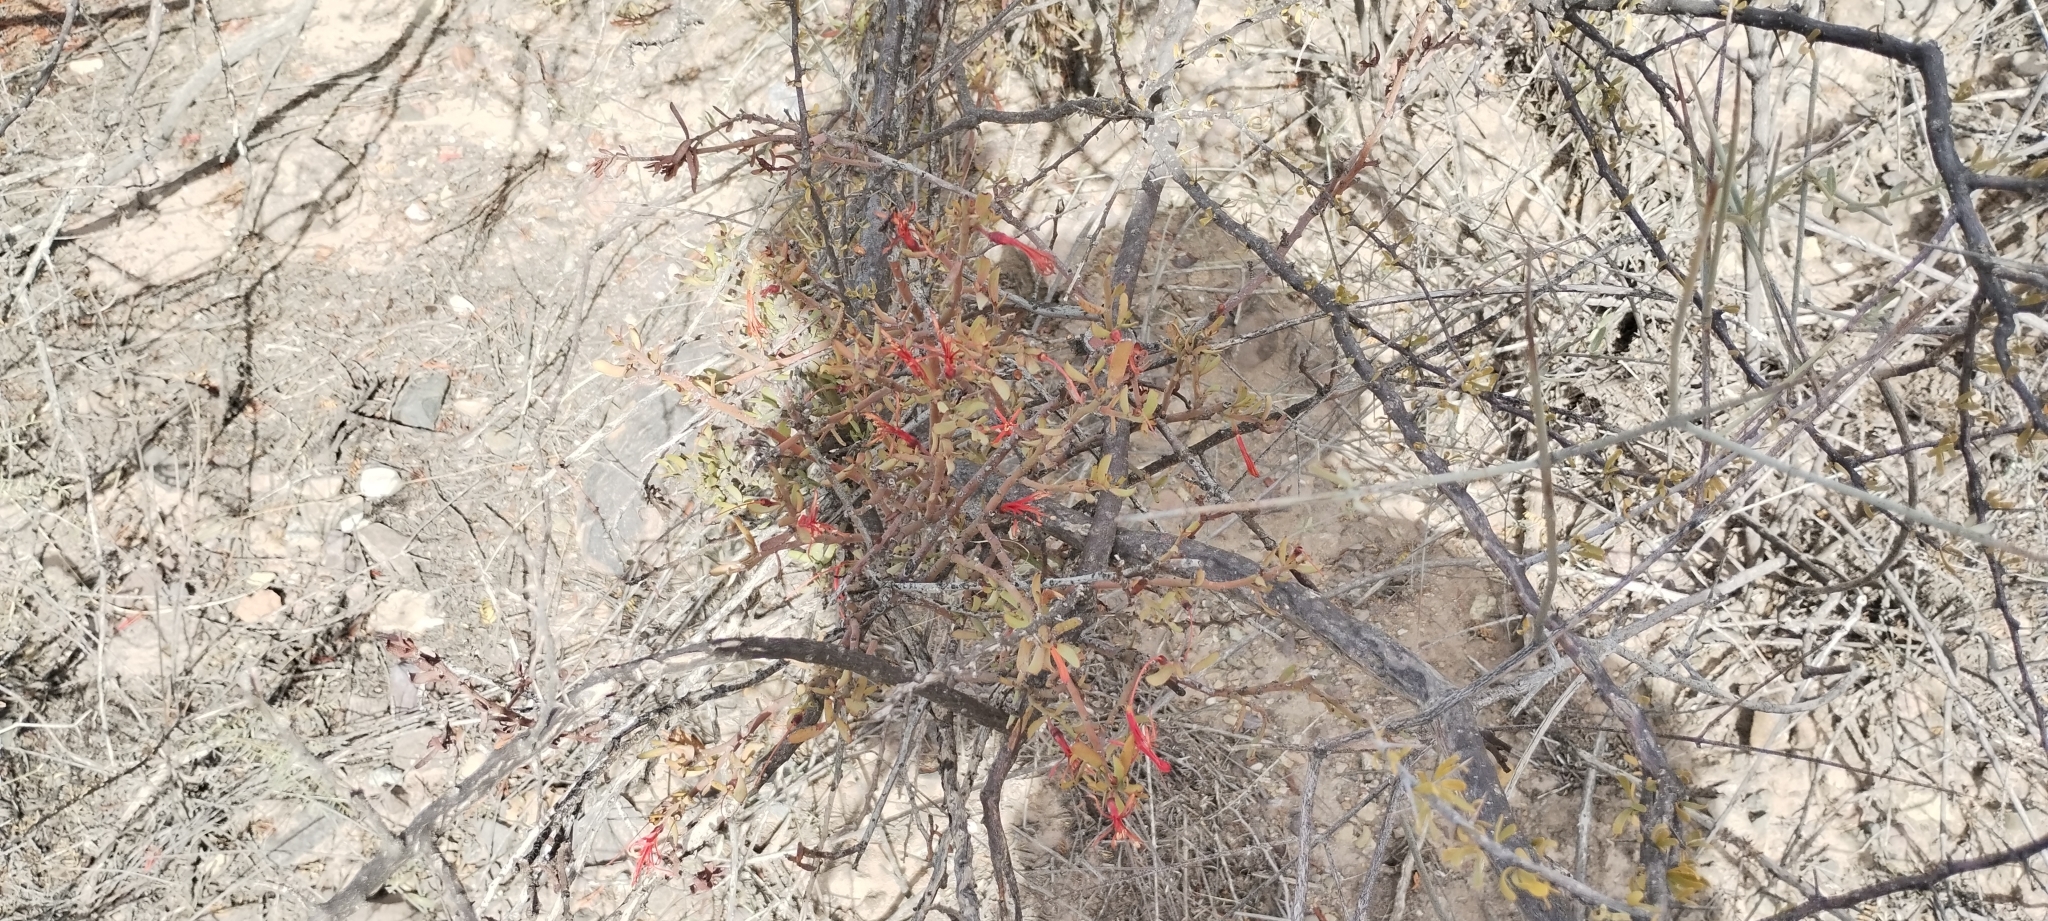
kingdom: Plantae
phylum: Tracheophyta
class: Magnoliopsida
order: Santalales
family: Loranthaceae
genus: Ligaria
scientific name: Ligaria cuneifolia
